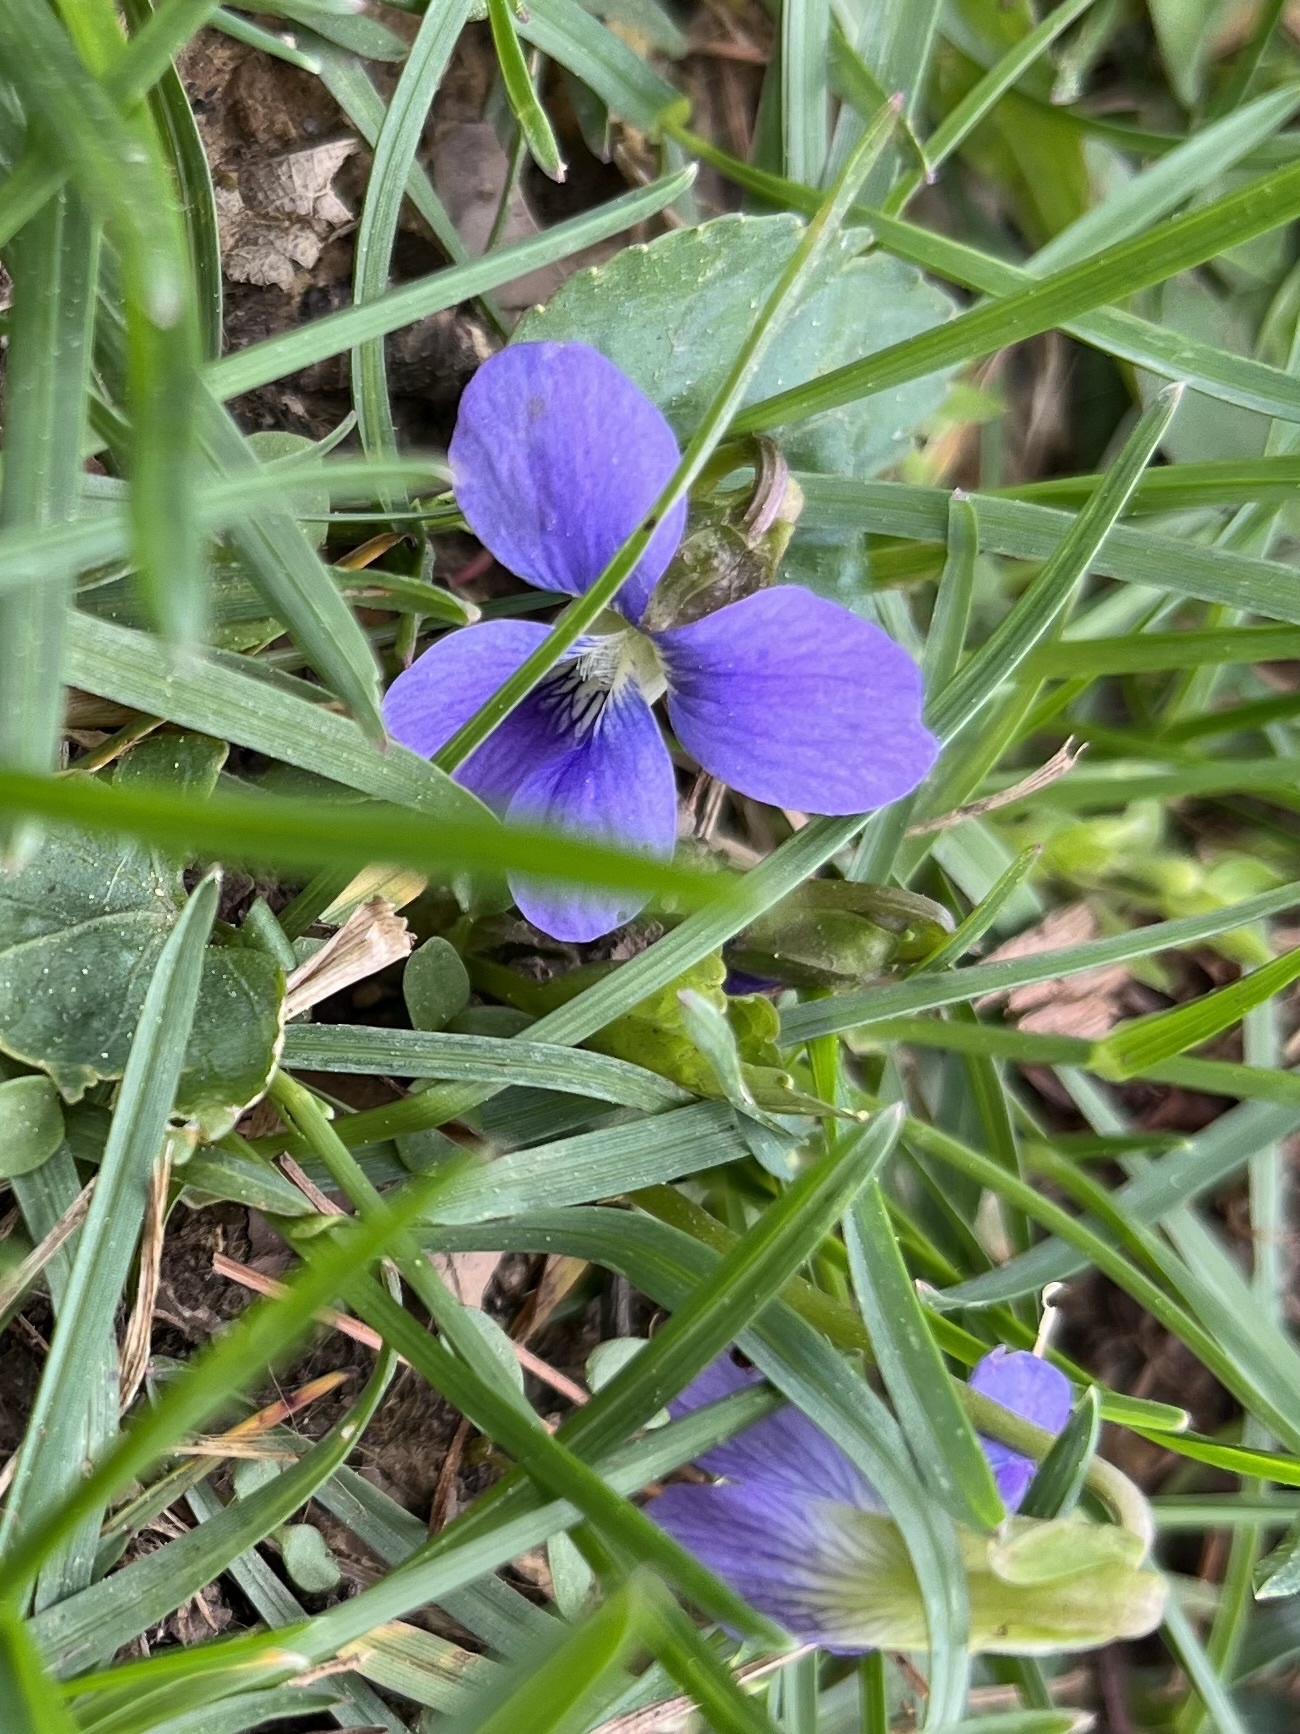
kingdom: Plantae
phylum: Tracheophyta
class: Magnoliopsida
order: Malpighiales
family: Violaceae
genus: Viola
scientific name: Viola sororia
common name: Dooryard violet
